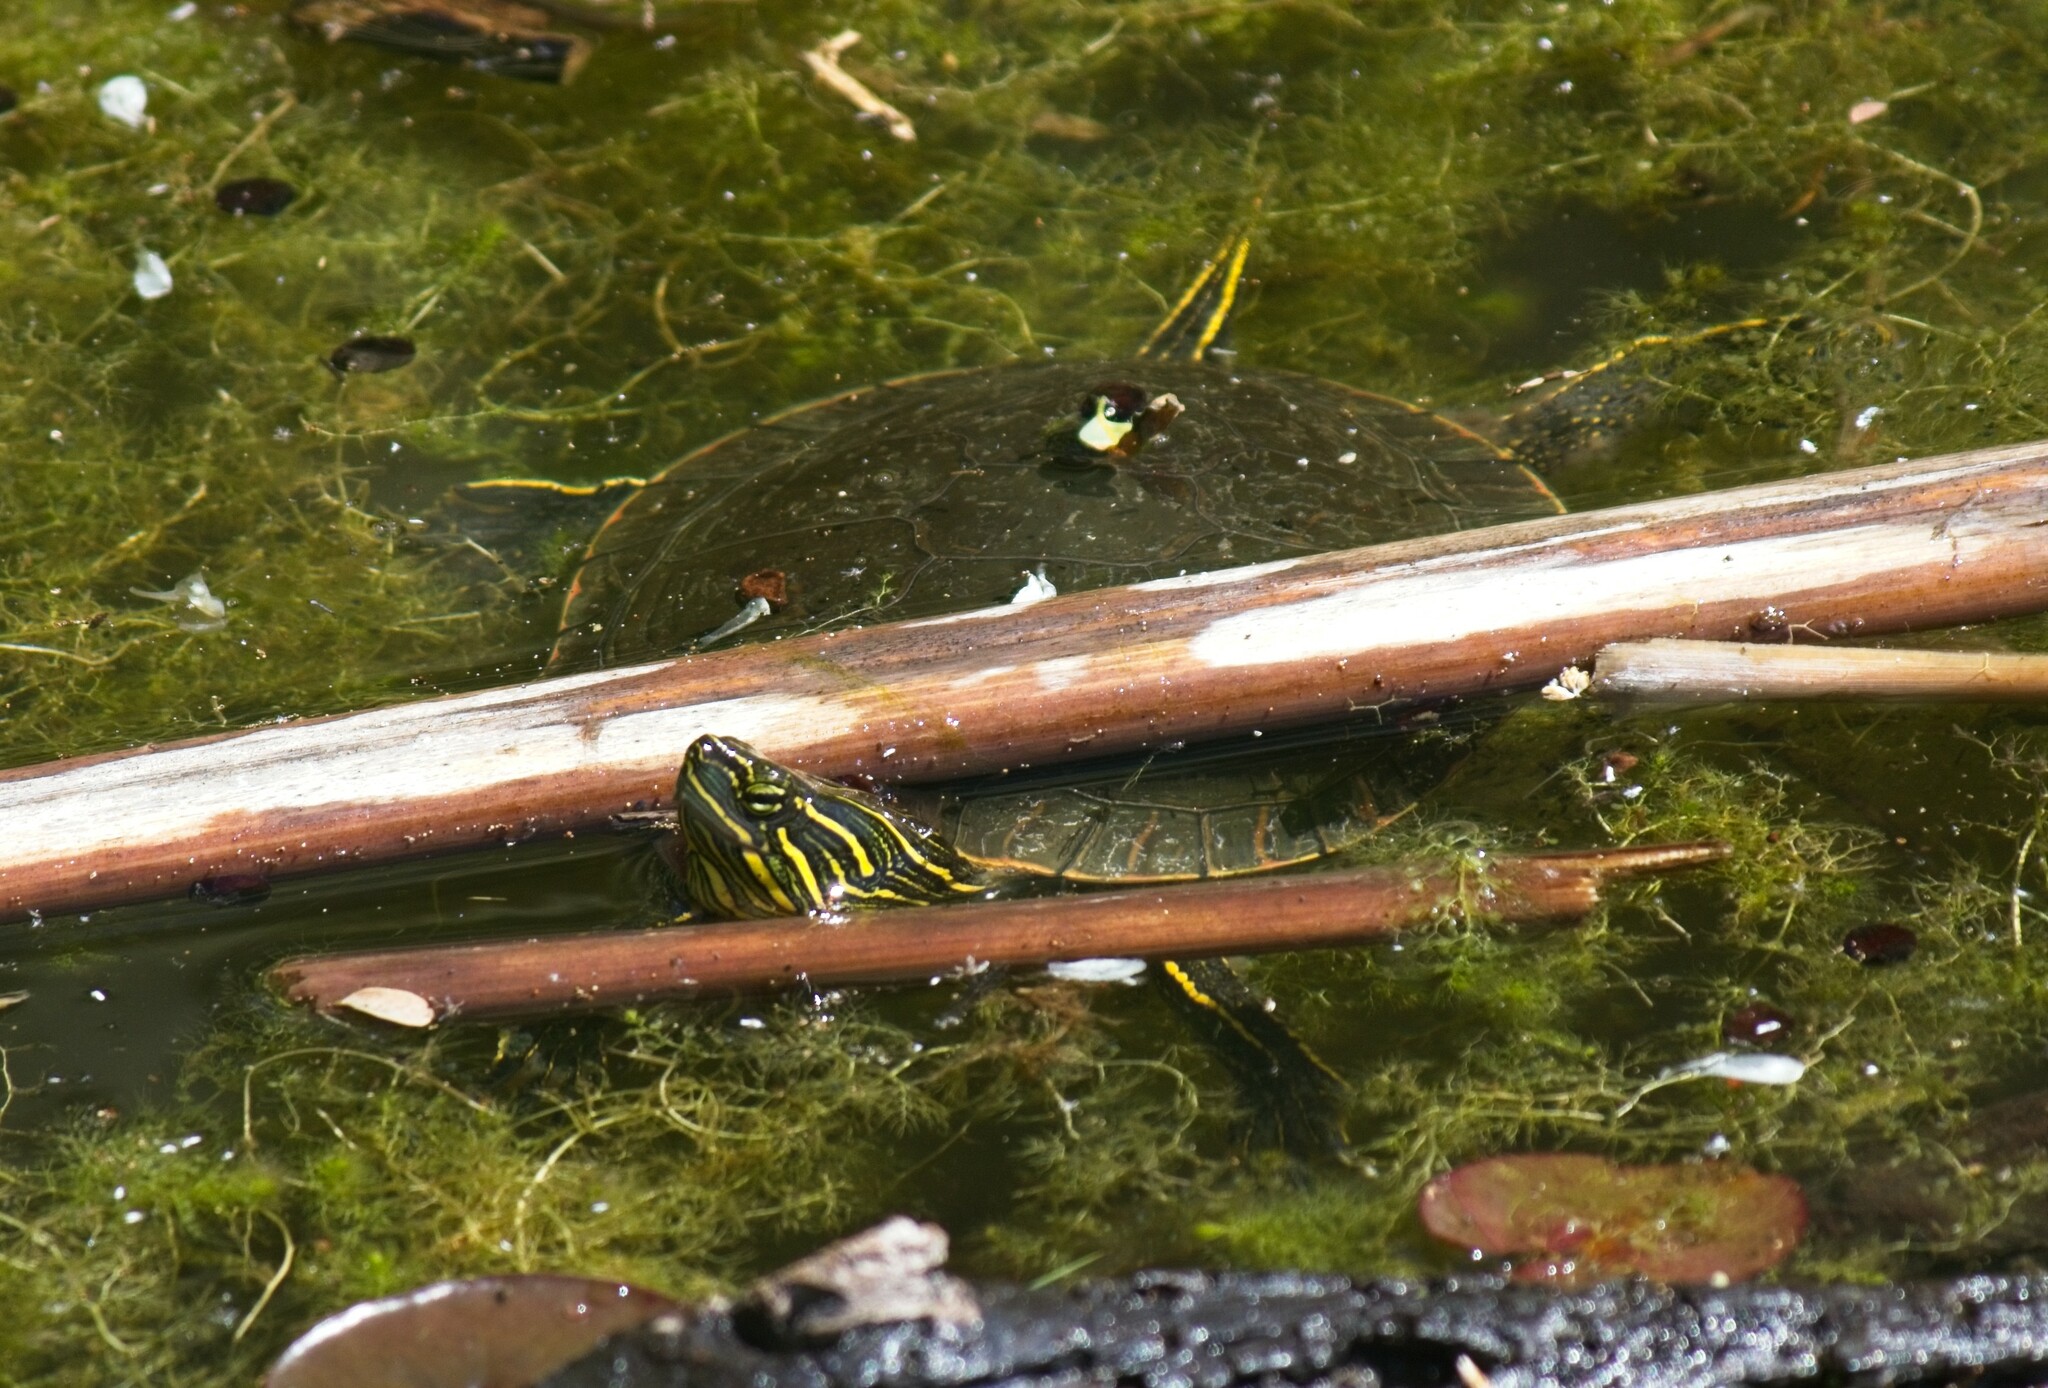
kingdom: Animalia
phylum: Chordata
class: Testudines
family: Emydidae
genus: Chrysemys
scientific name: Chrysemys picta
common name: Painted turtle
